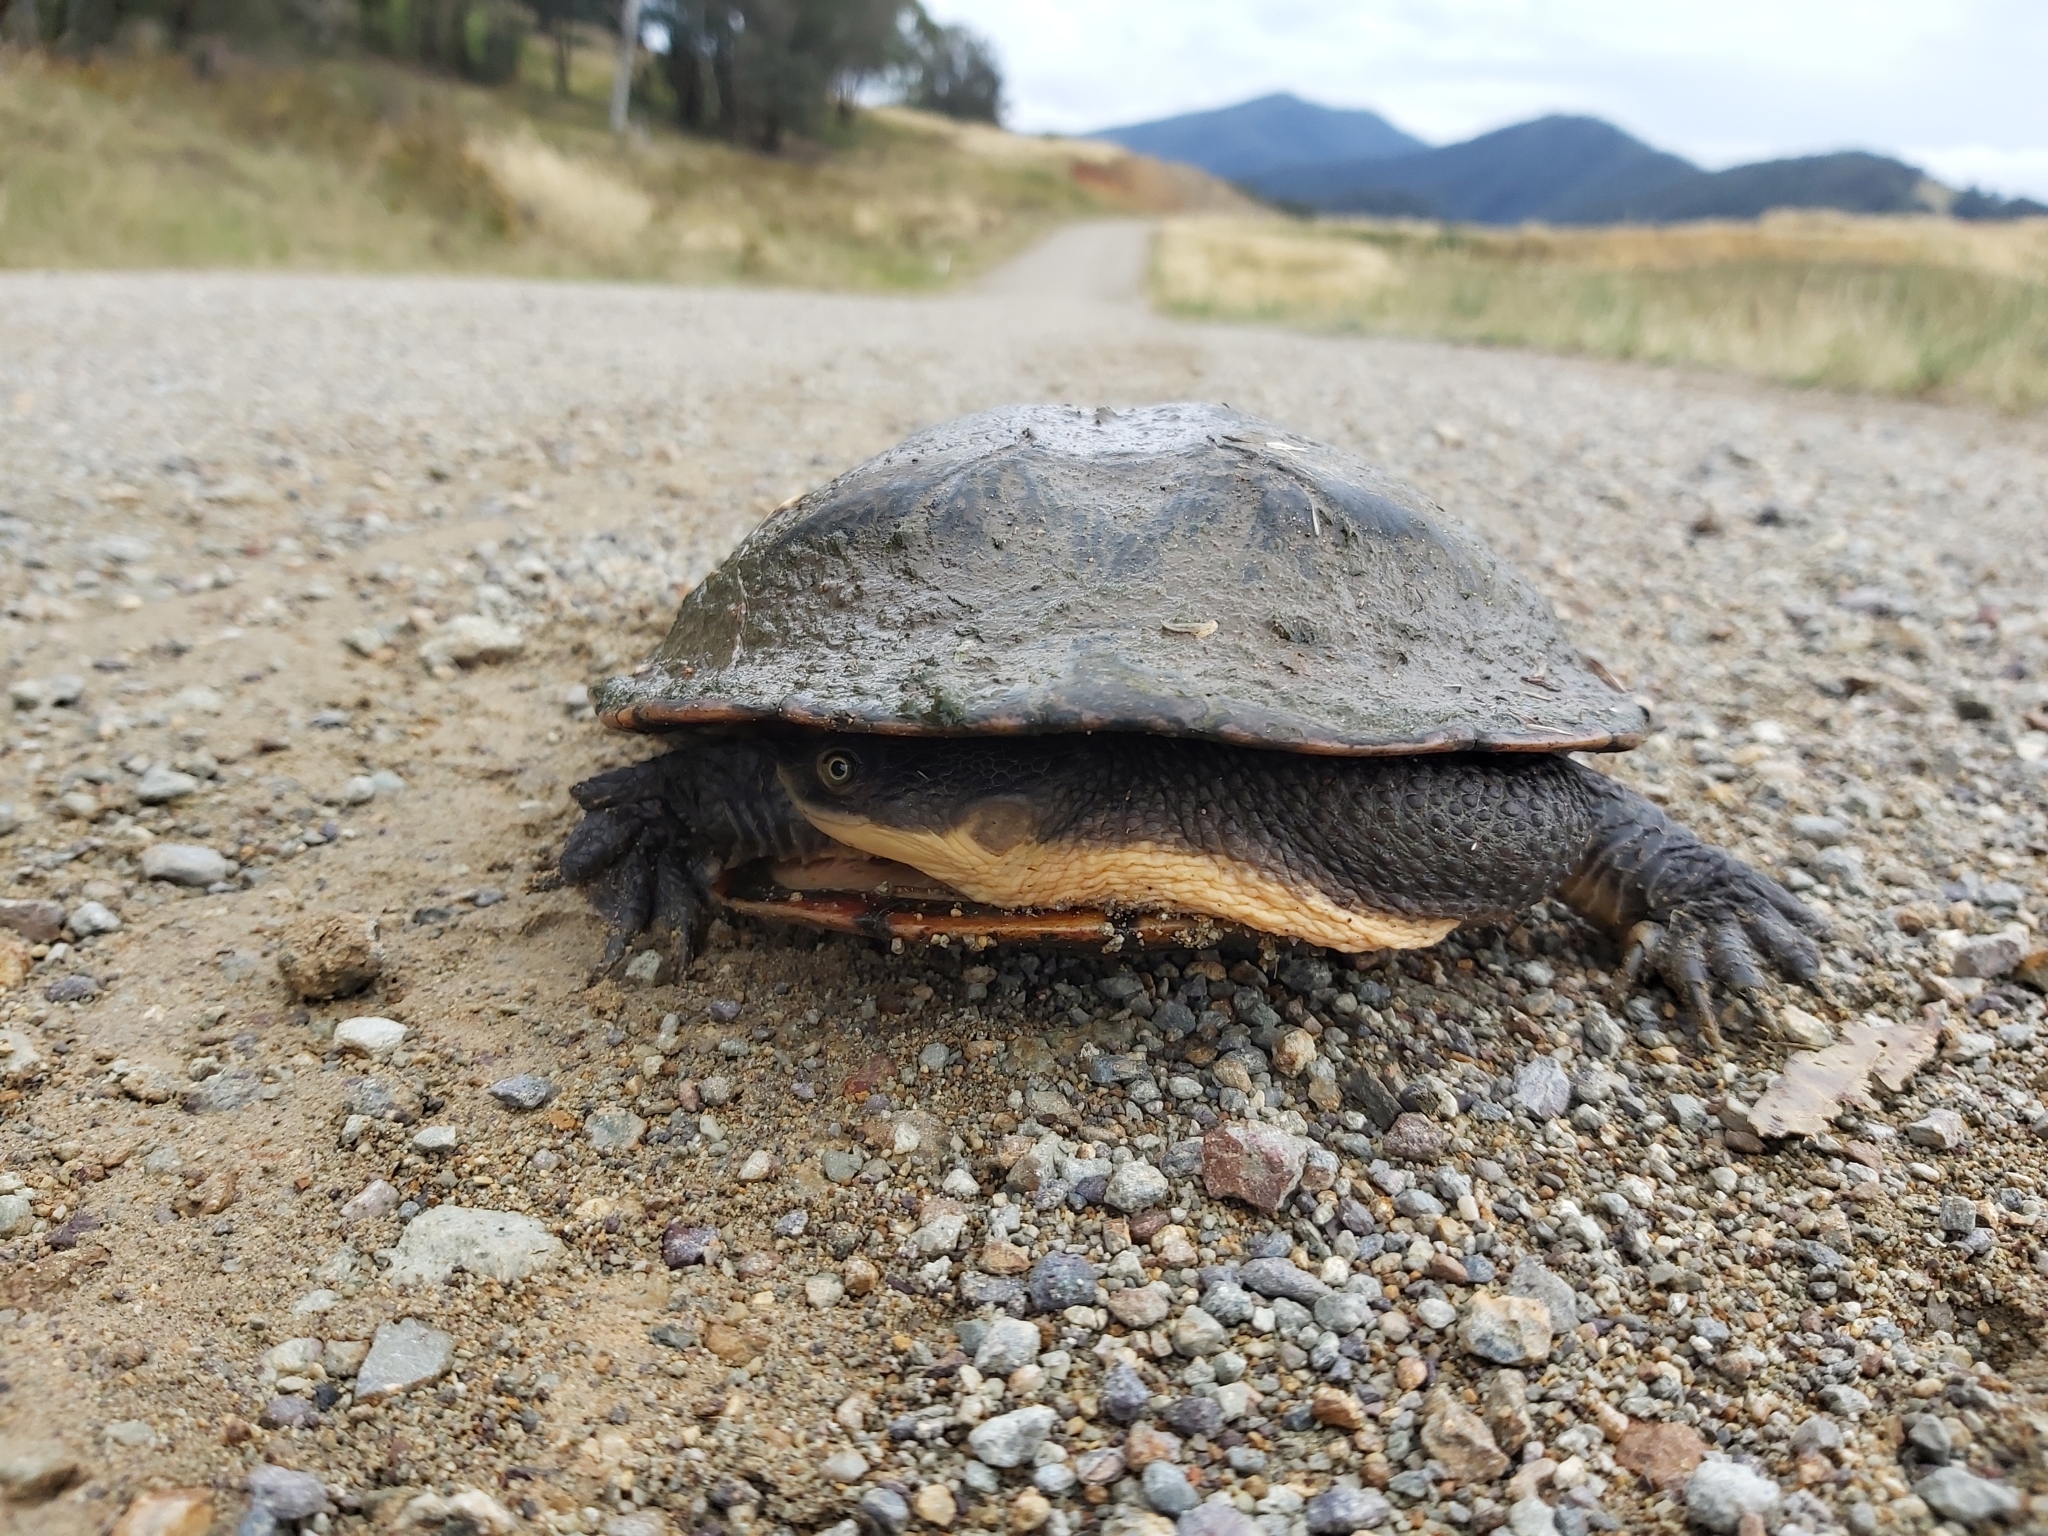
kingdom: Animalia
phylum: Chordata
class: Testudines
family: Chelidae
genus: Chelodina
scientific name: Chelodina longicollis
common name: Eastern snake-necked turtle
